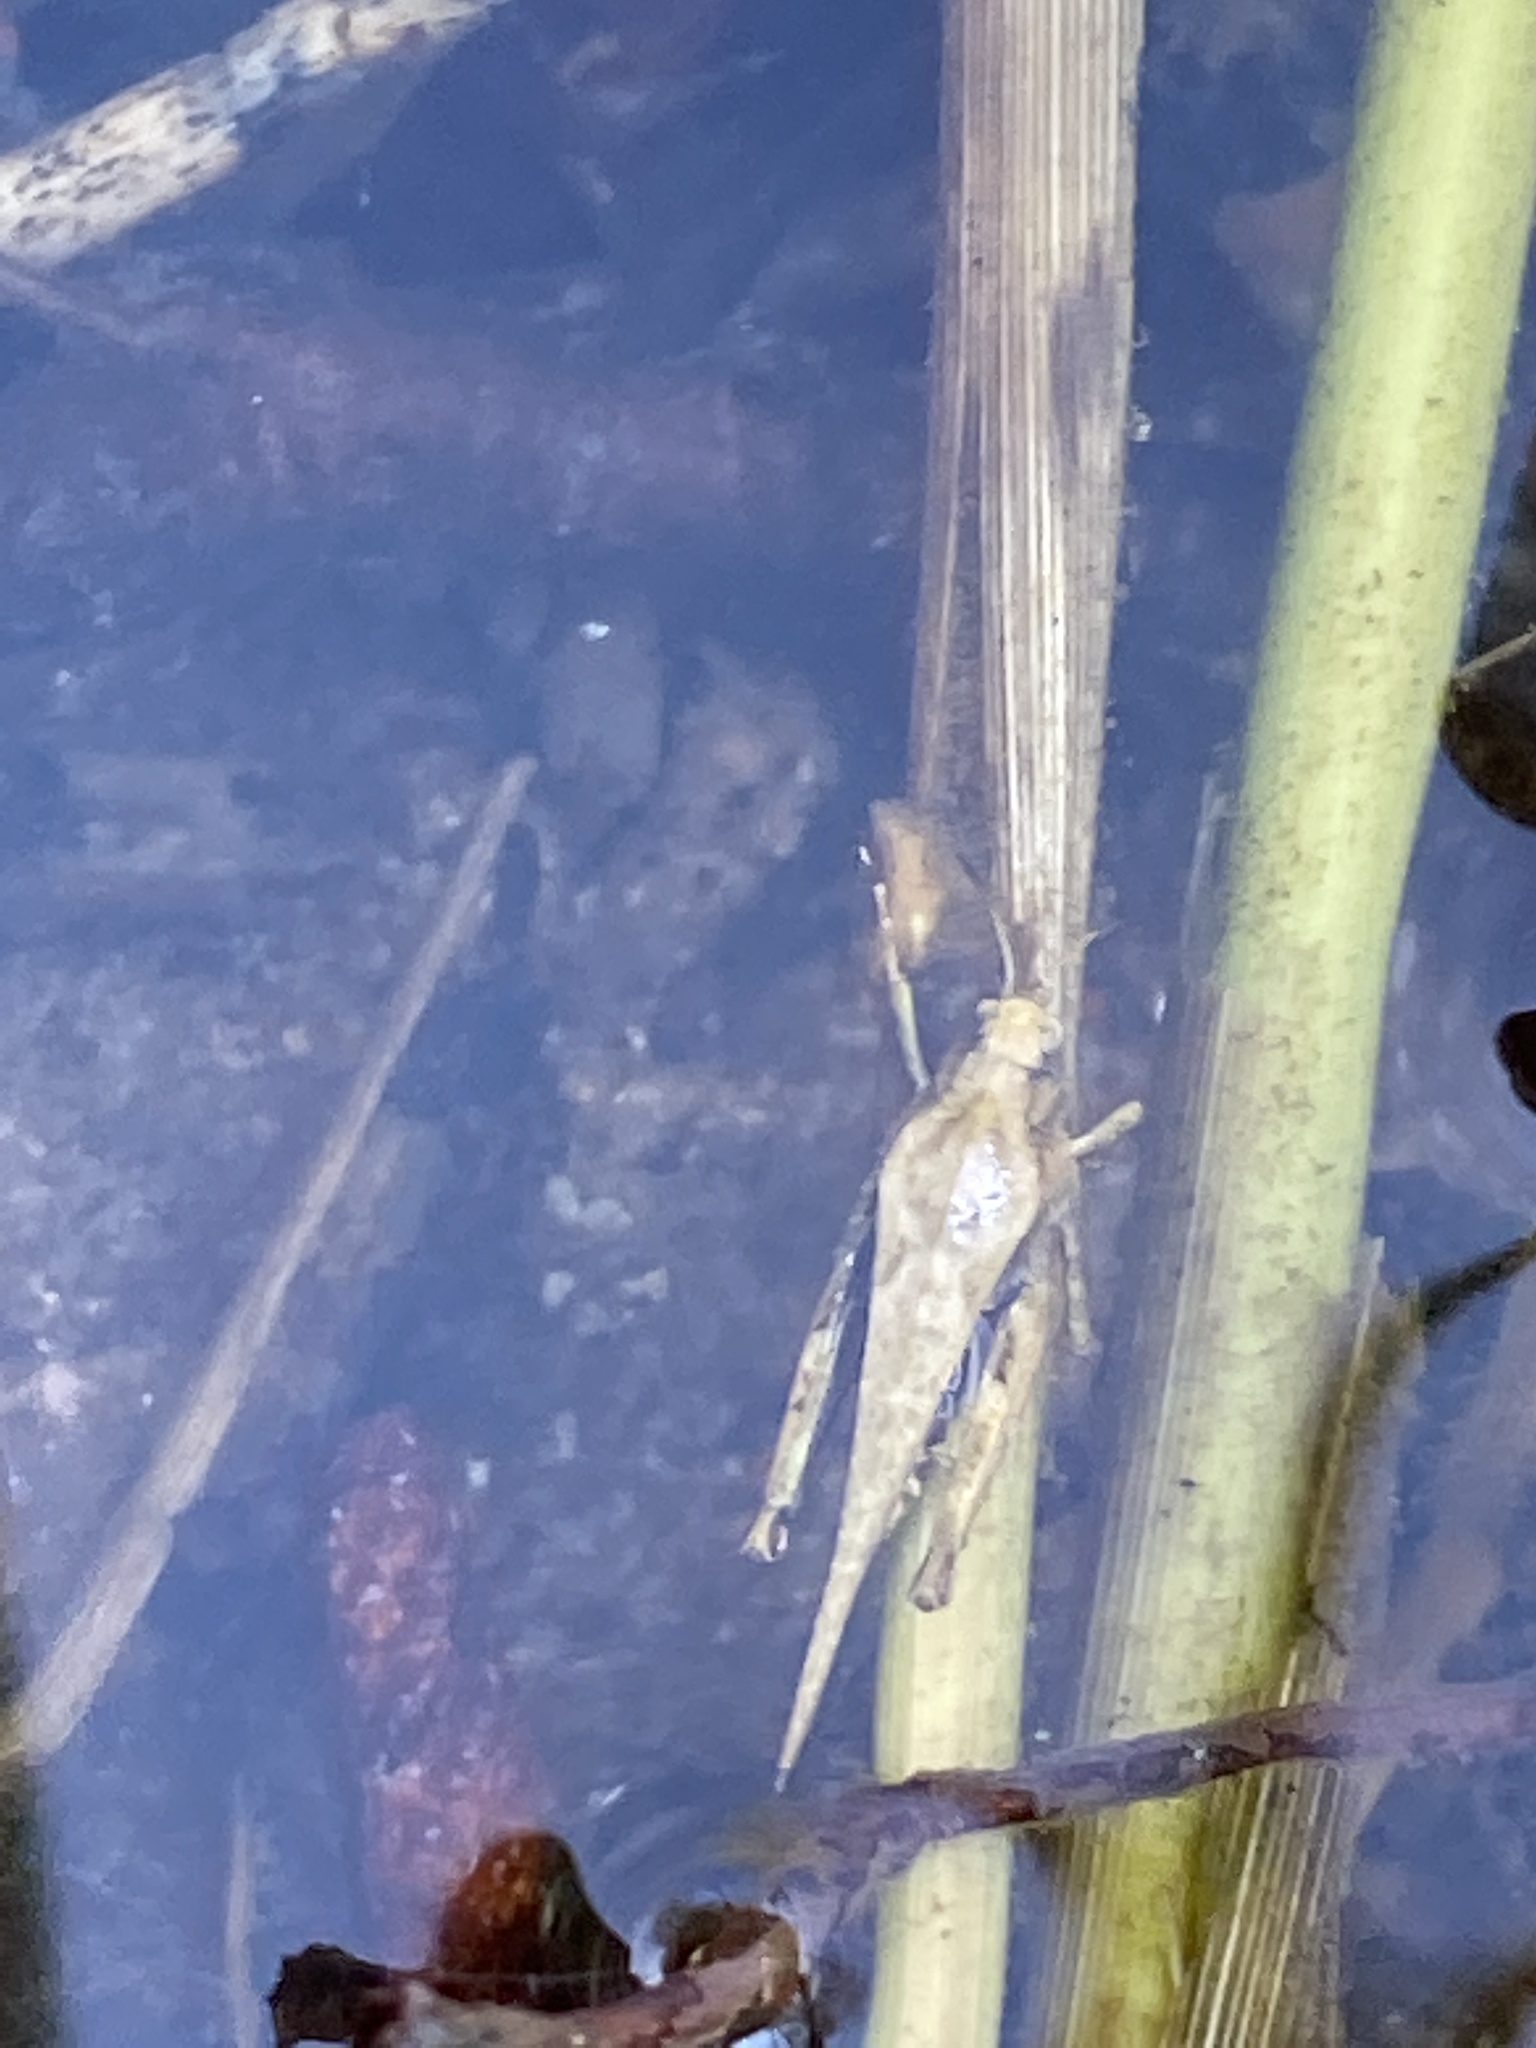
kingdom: Animalia
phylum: Arthropoda
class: Insecta
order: Orthoptera
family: Tetrigidae
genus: Tetrix
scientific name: Tetrix subulata
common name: Slender ground-hopper
